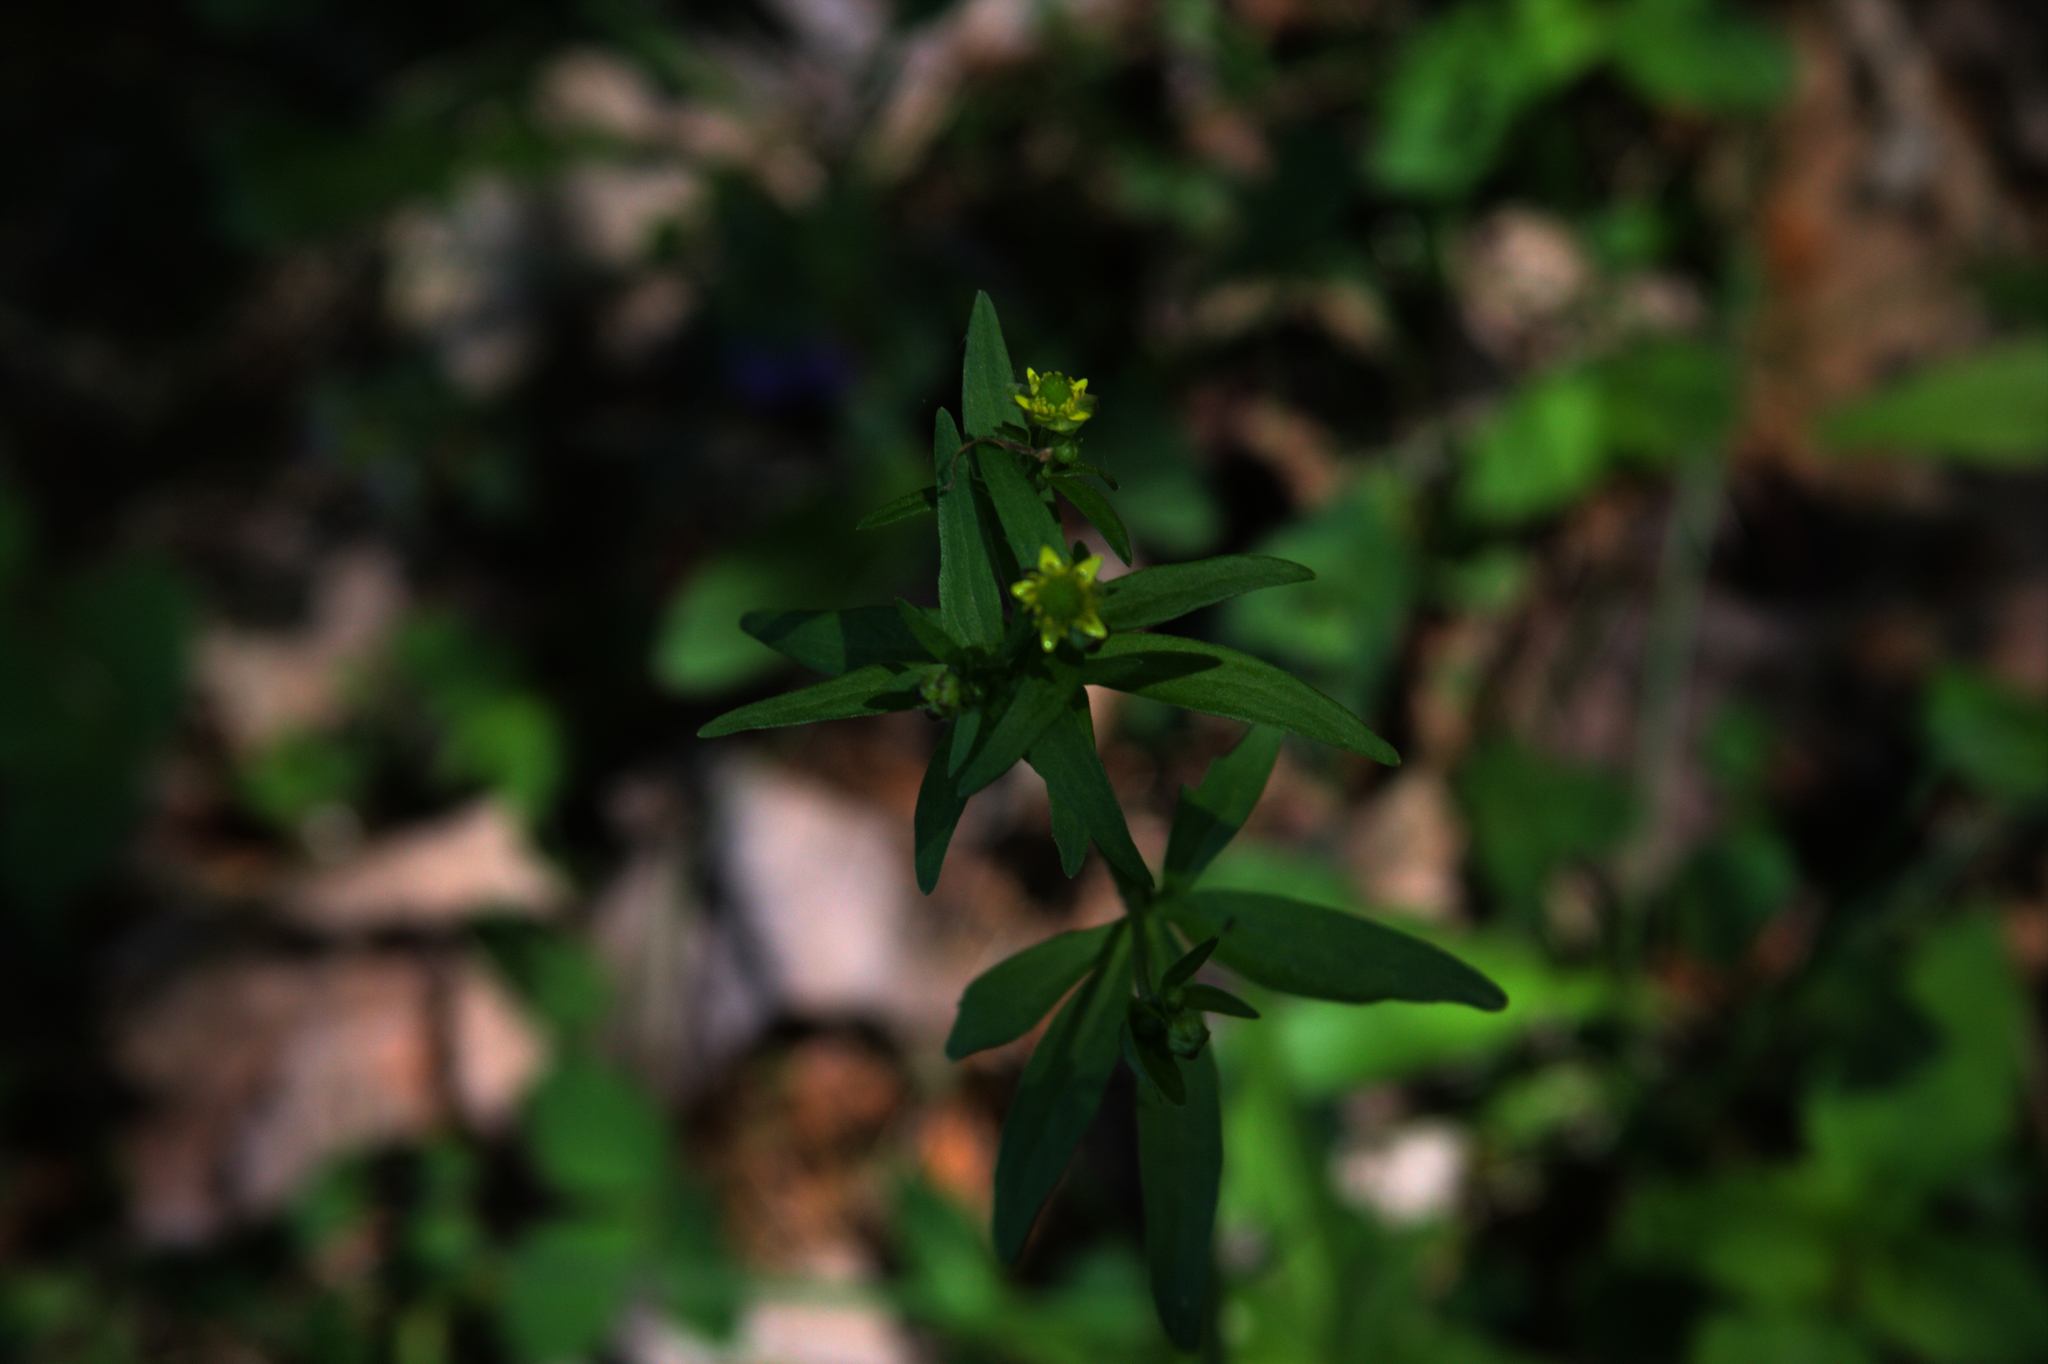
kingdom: Plantae
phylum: Tracheophyta
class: Magnoliopsida
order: Ranunculales
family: Ranunculaceae
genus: Ranunculus
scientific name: Ranunculus abortivus
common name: Early wood buttercup
